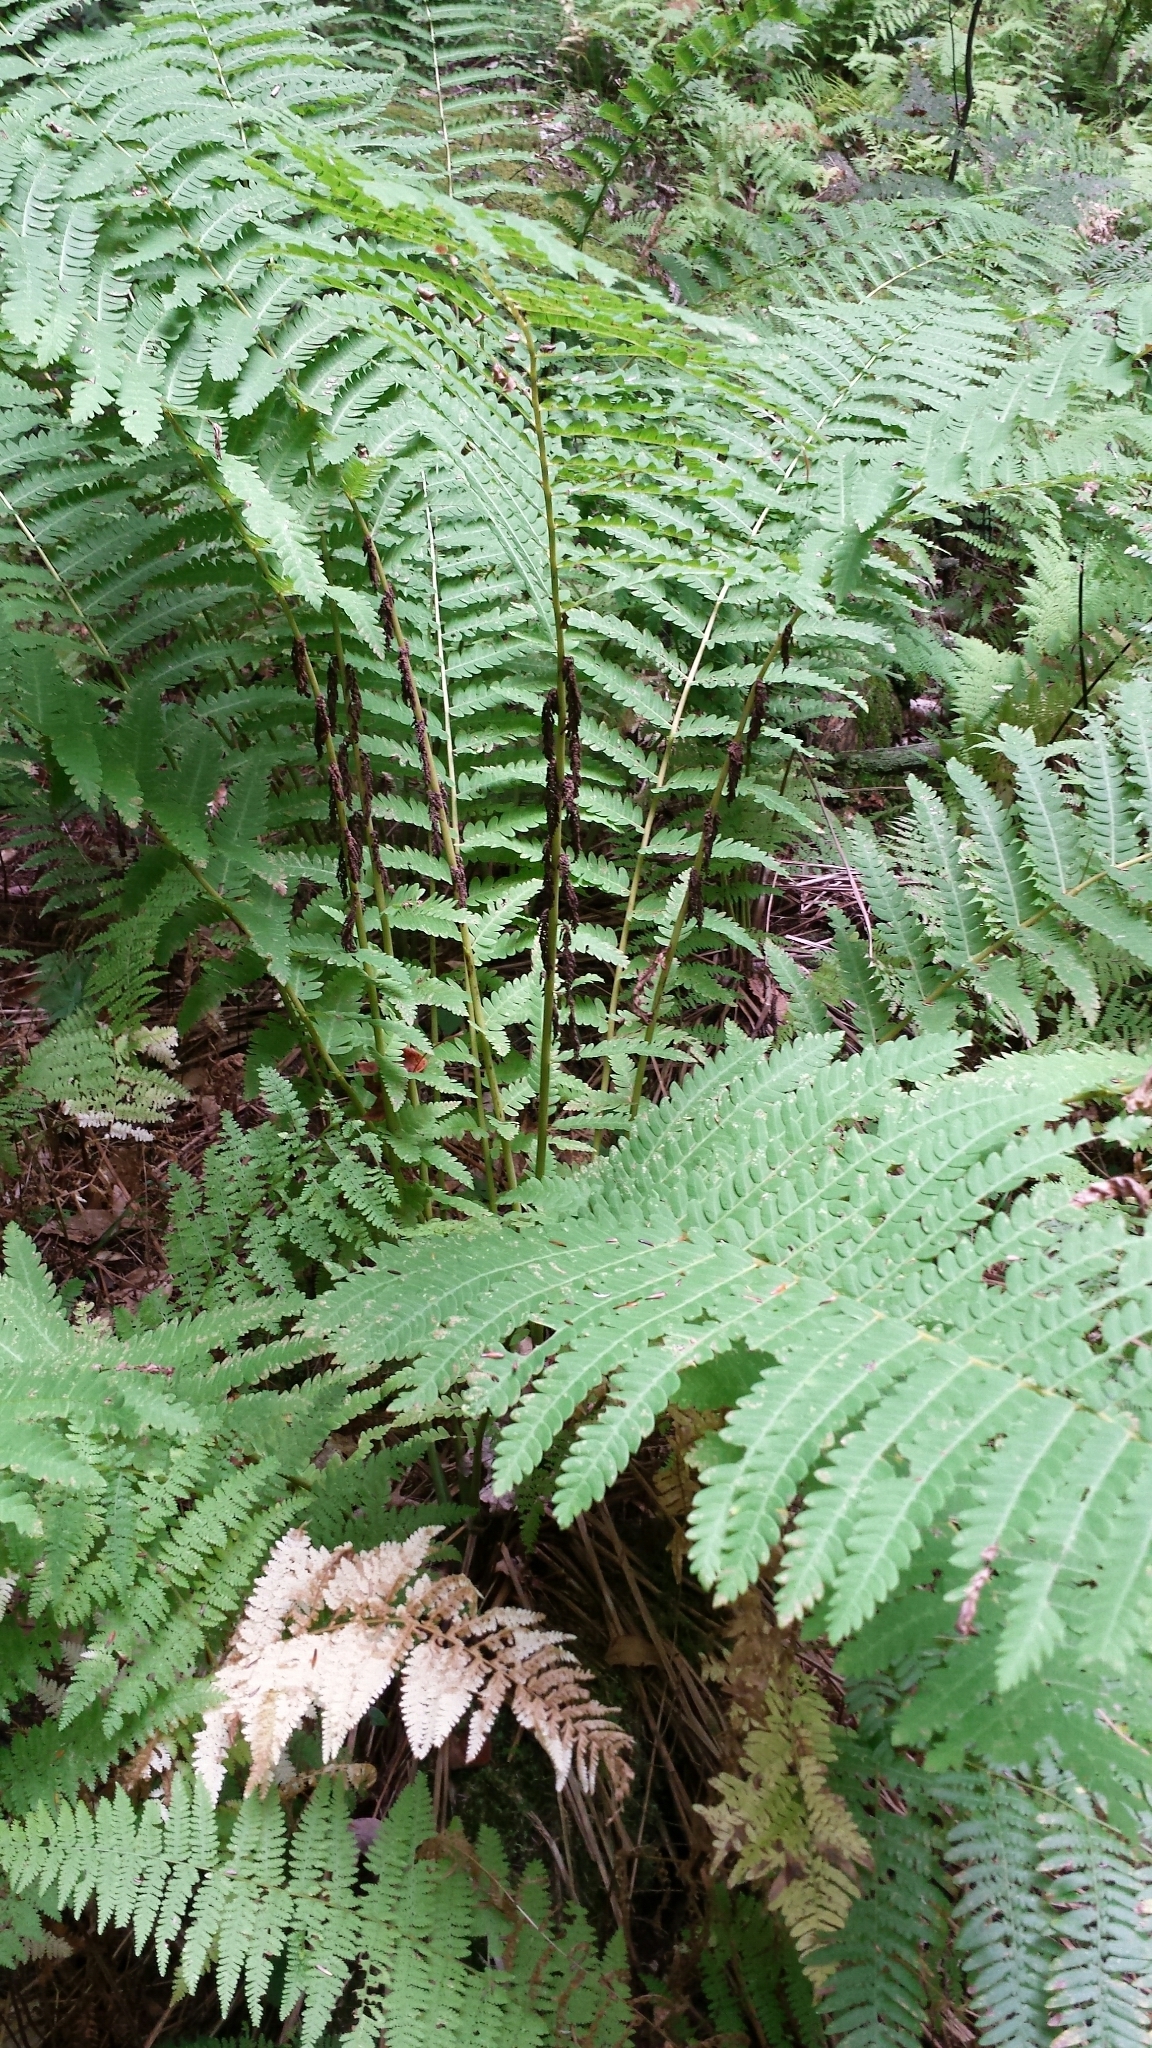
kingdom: Plantae
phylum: Tracheophyta
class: Polypodiopsida
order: Osmundales
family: Osmundaceae
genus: Claytosmunda
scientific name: Claytosmunda claytoniana
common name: Clayton's fern
